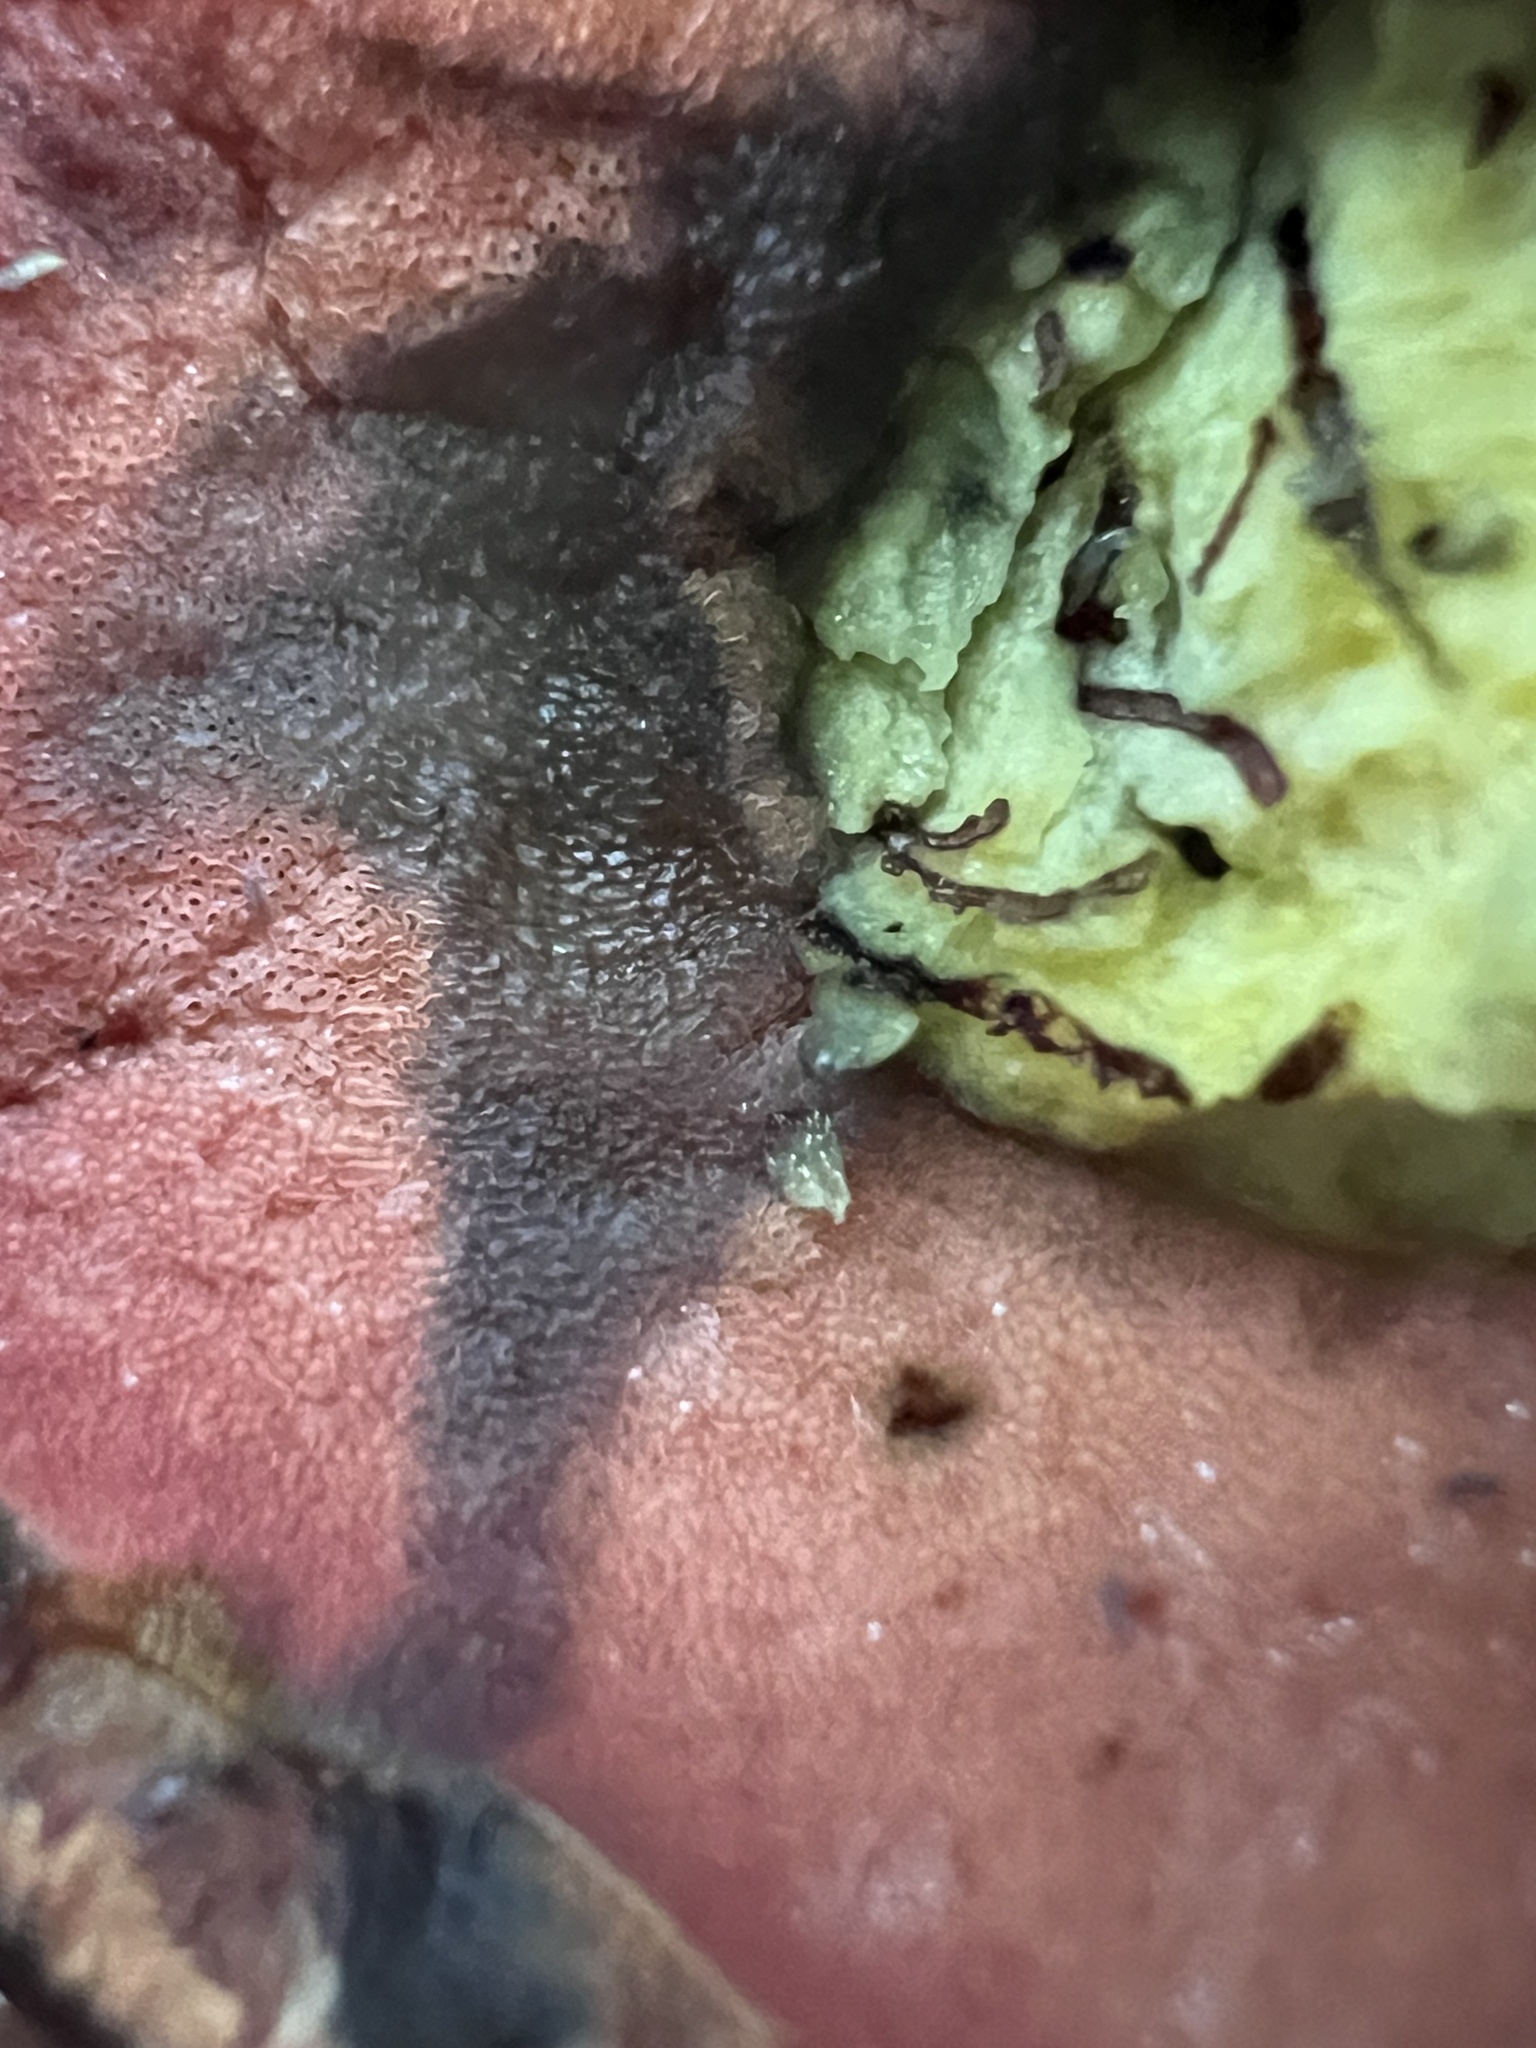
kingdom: Fungi
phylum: Basidiomycota
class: Agaricomycetes
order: Boletales
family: Boletaceae
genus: Boletus
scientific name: Boletus subvelutipes
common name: Red-mouth bolete
